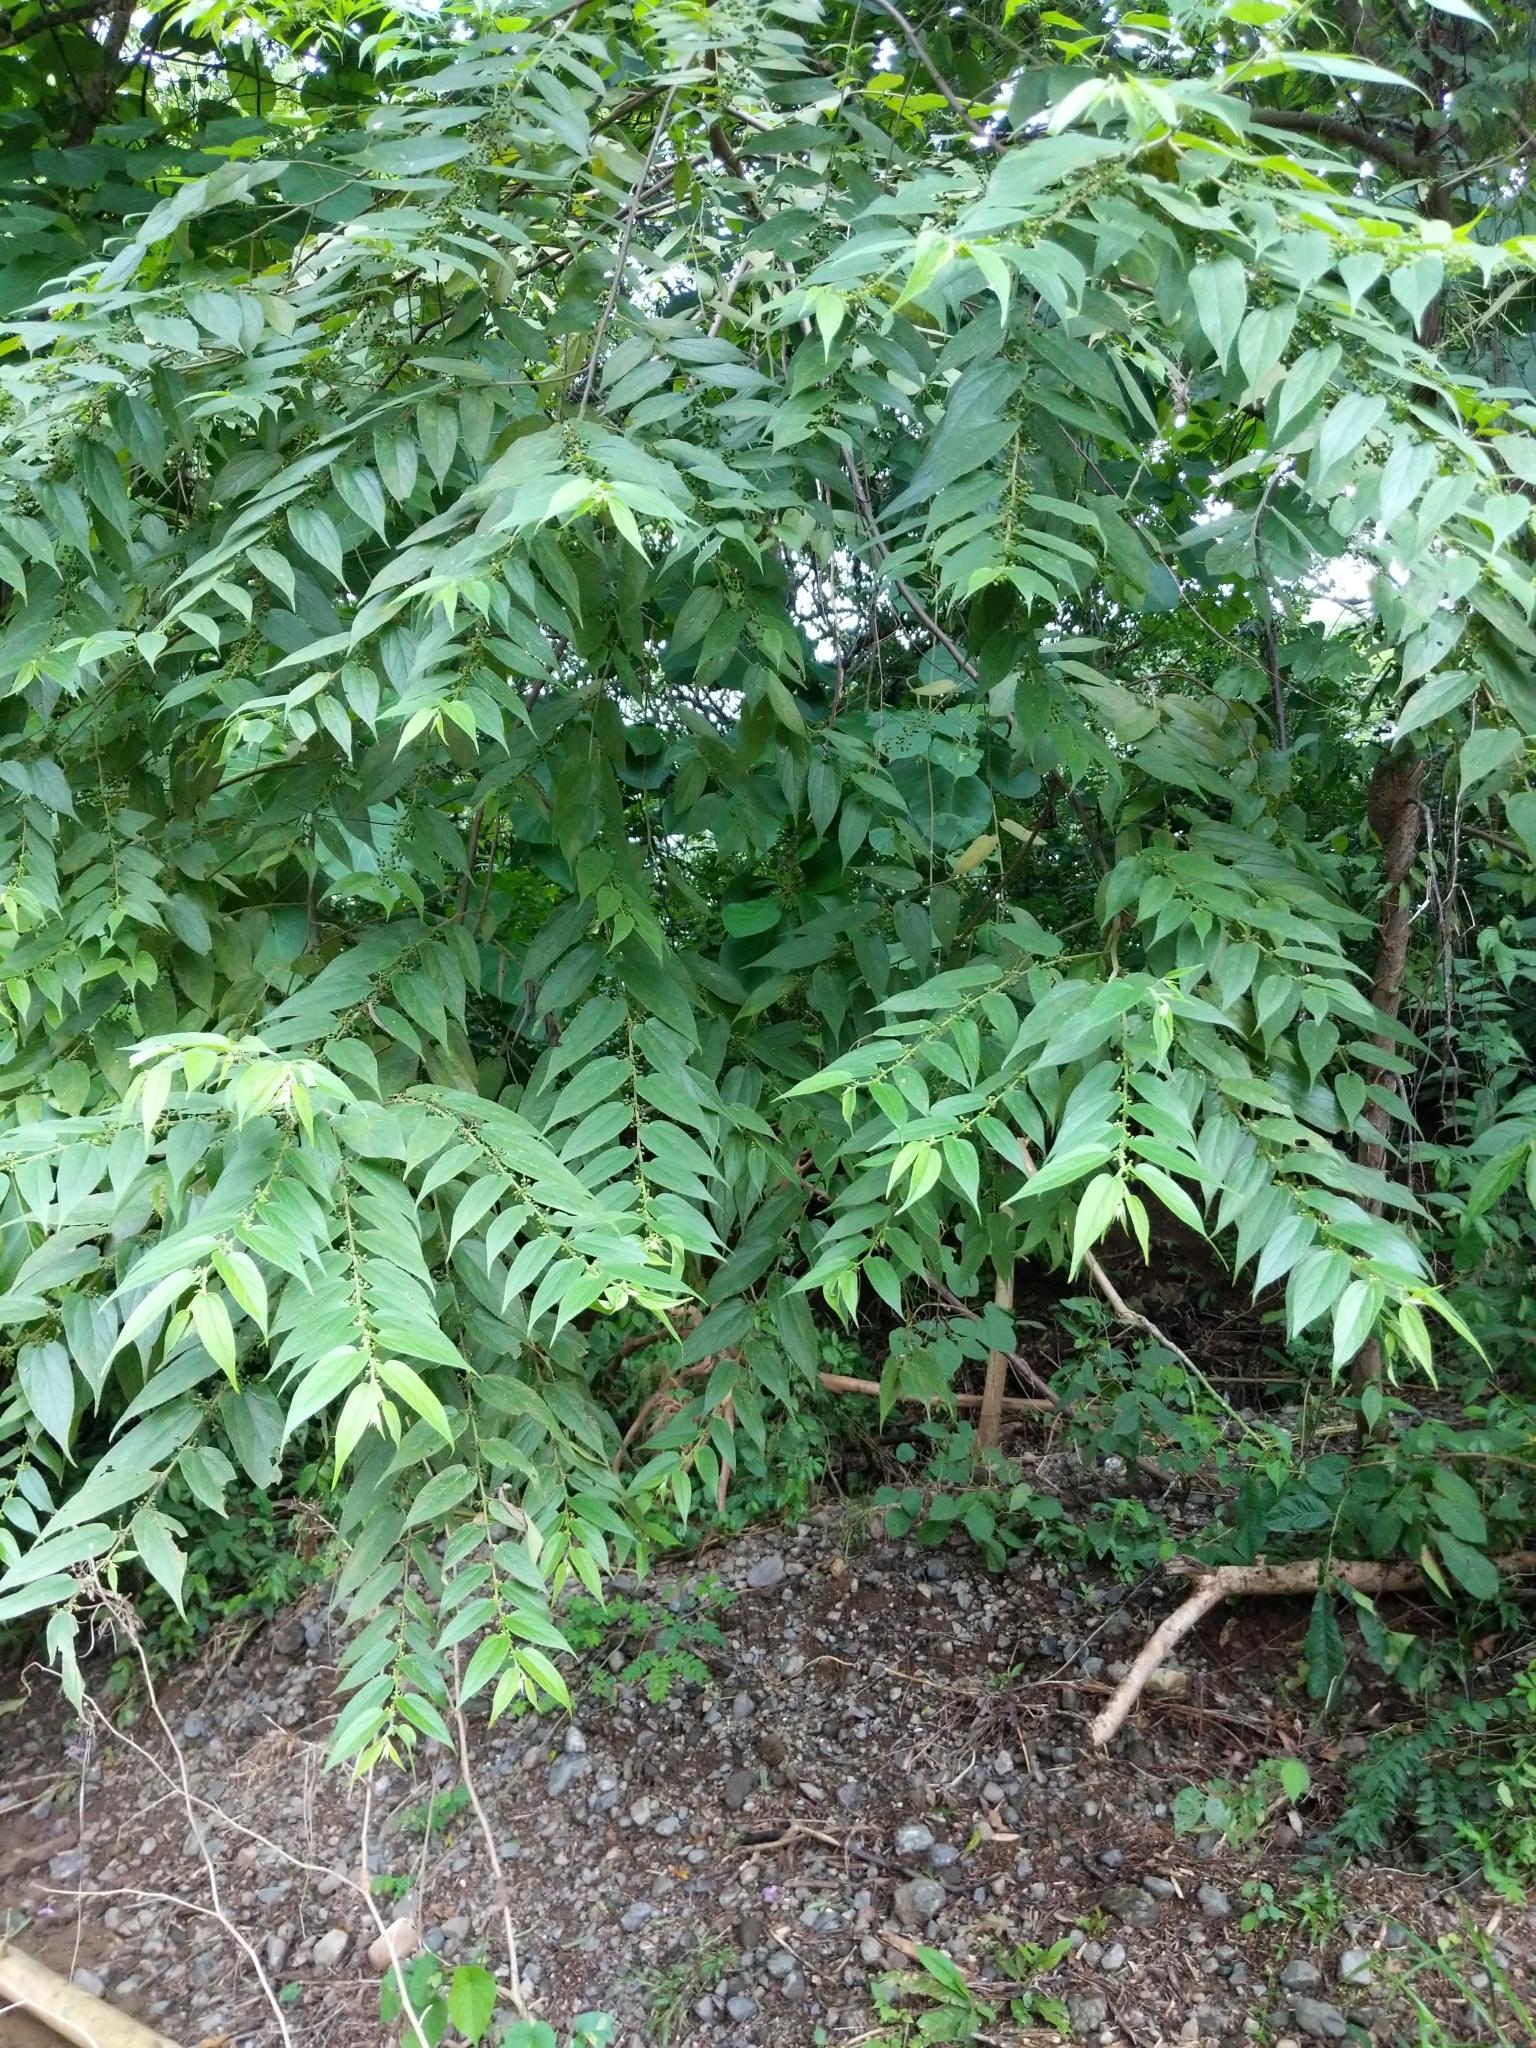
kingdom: Plantae
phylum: Tracheophyta
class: Magnoliopsida
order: Rosales
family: Cannabaceae
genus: Trema
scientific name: Trema micranthum
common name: Jamaican nettletree
